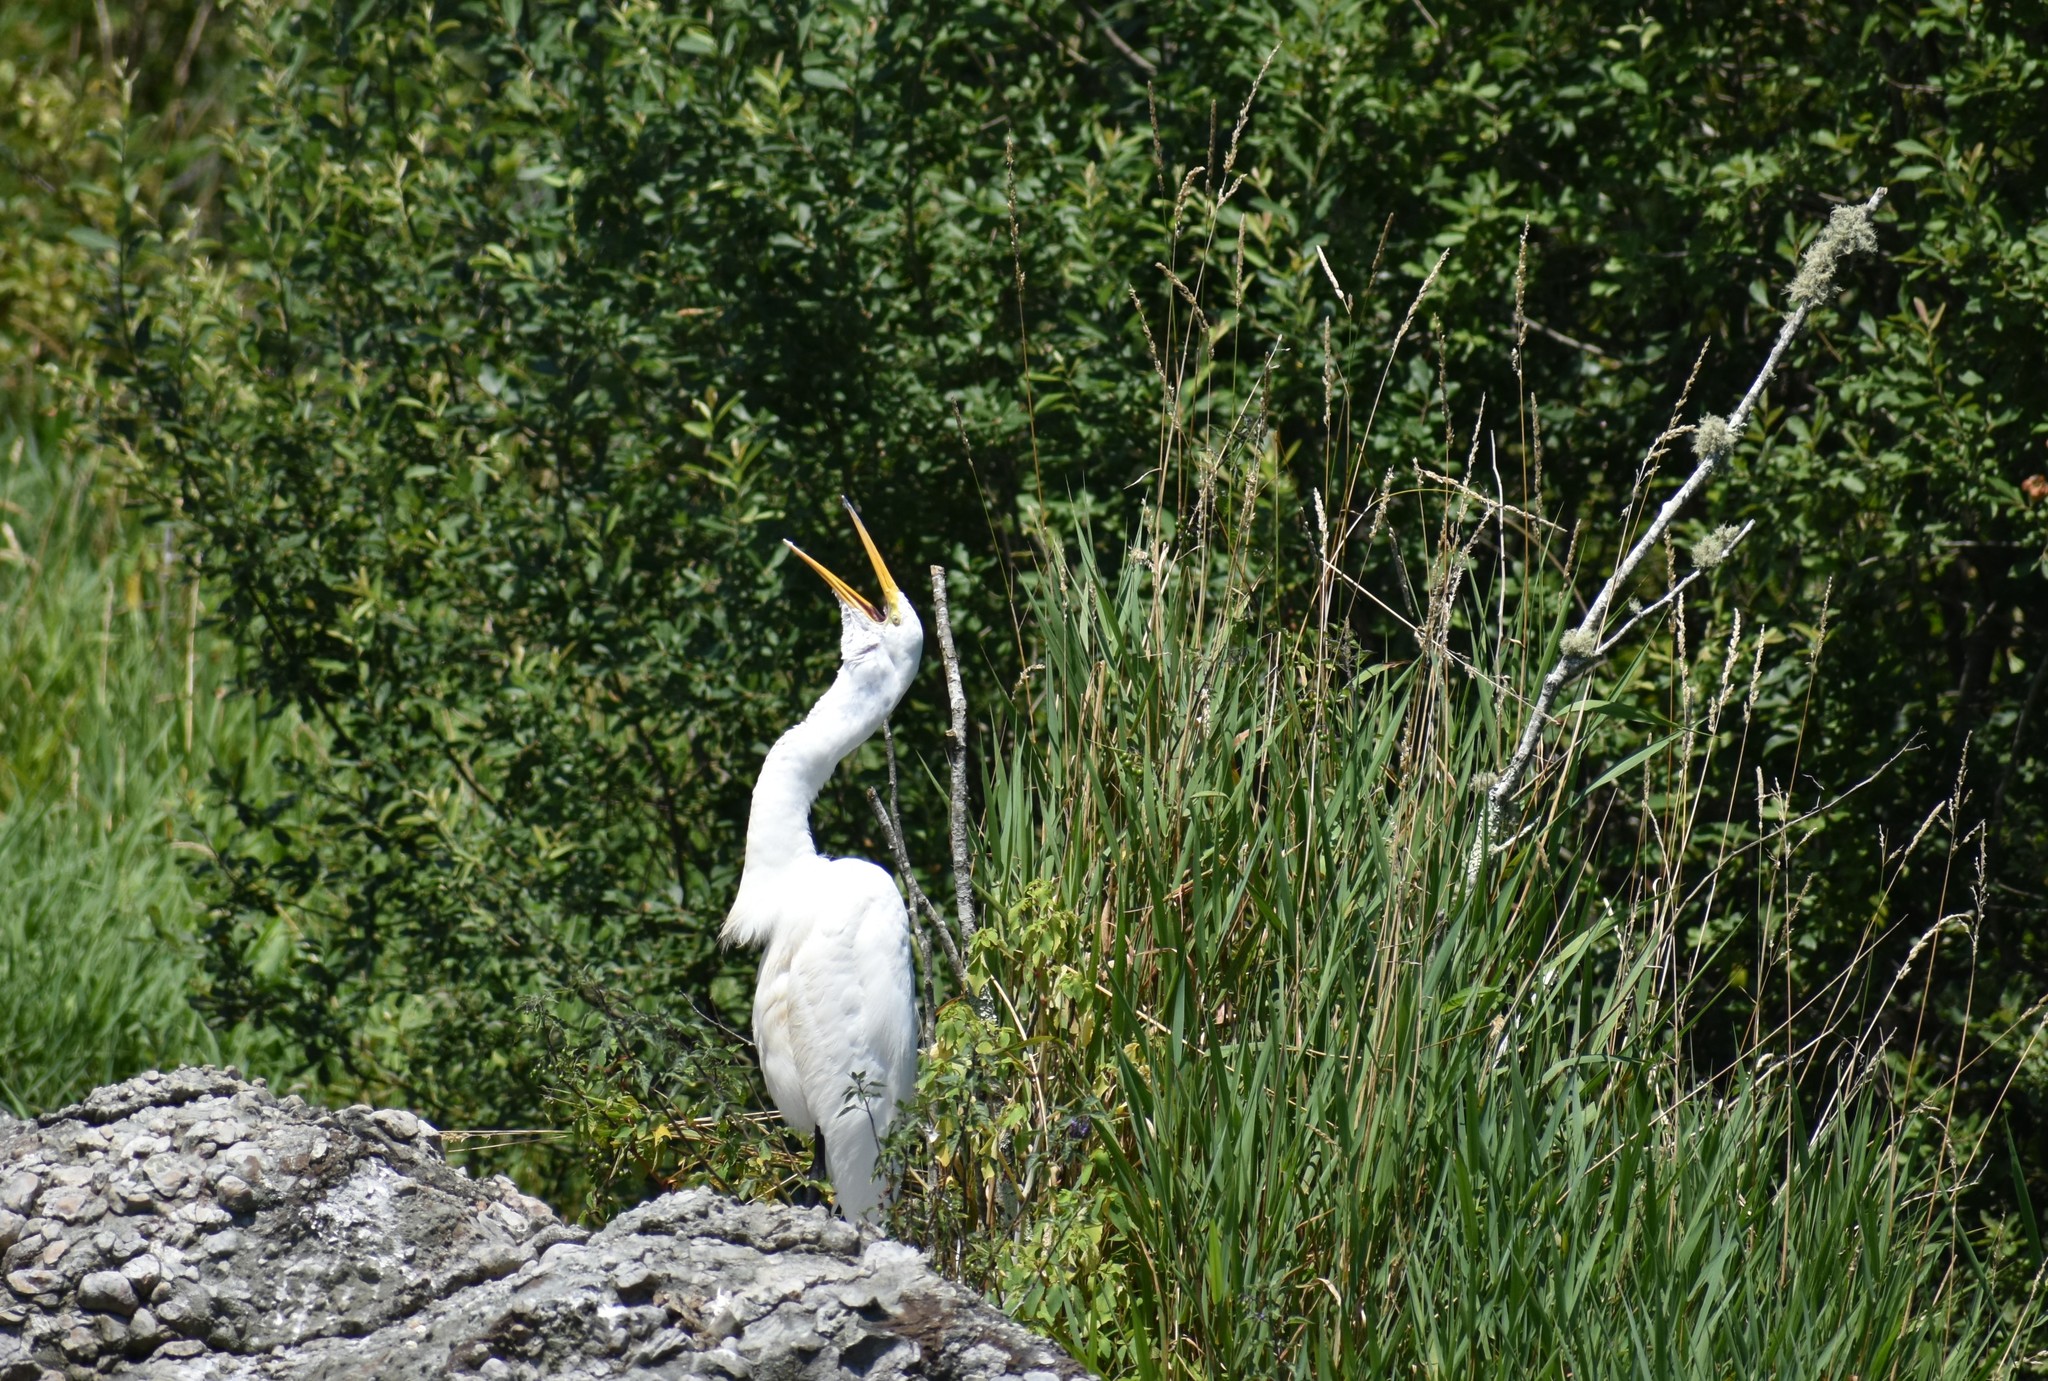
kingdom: Animalia
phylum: Chordata
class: Aves
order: Pelecaniformes
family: Ardeidae
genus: Ardea
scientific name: Ardea alba
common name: Great egret
